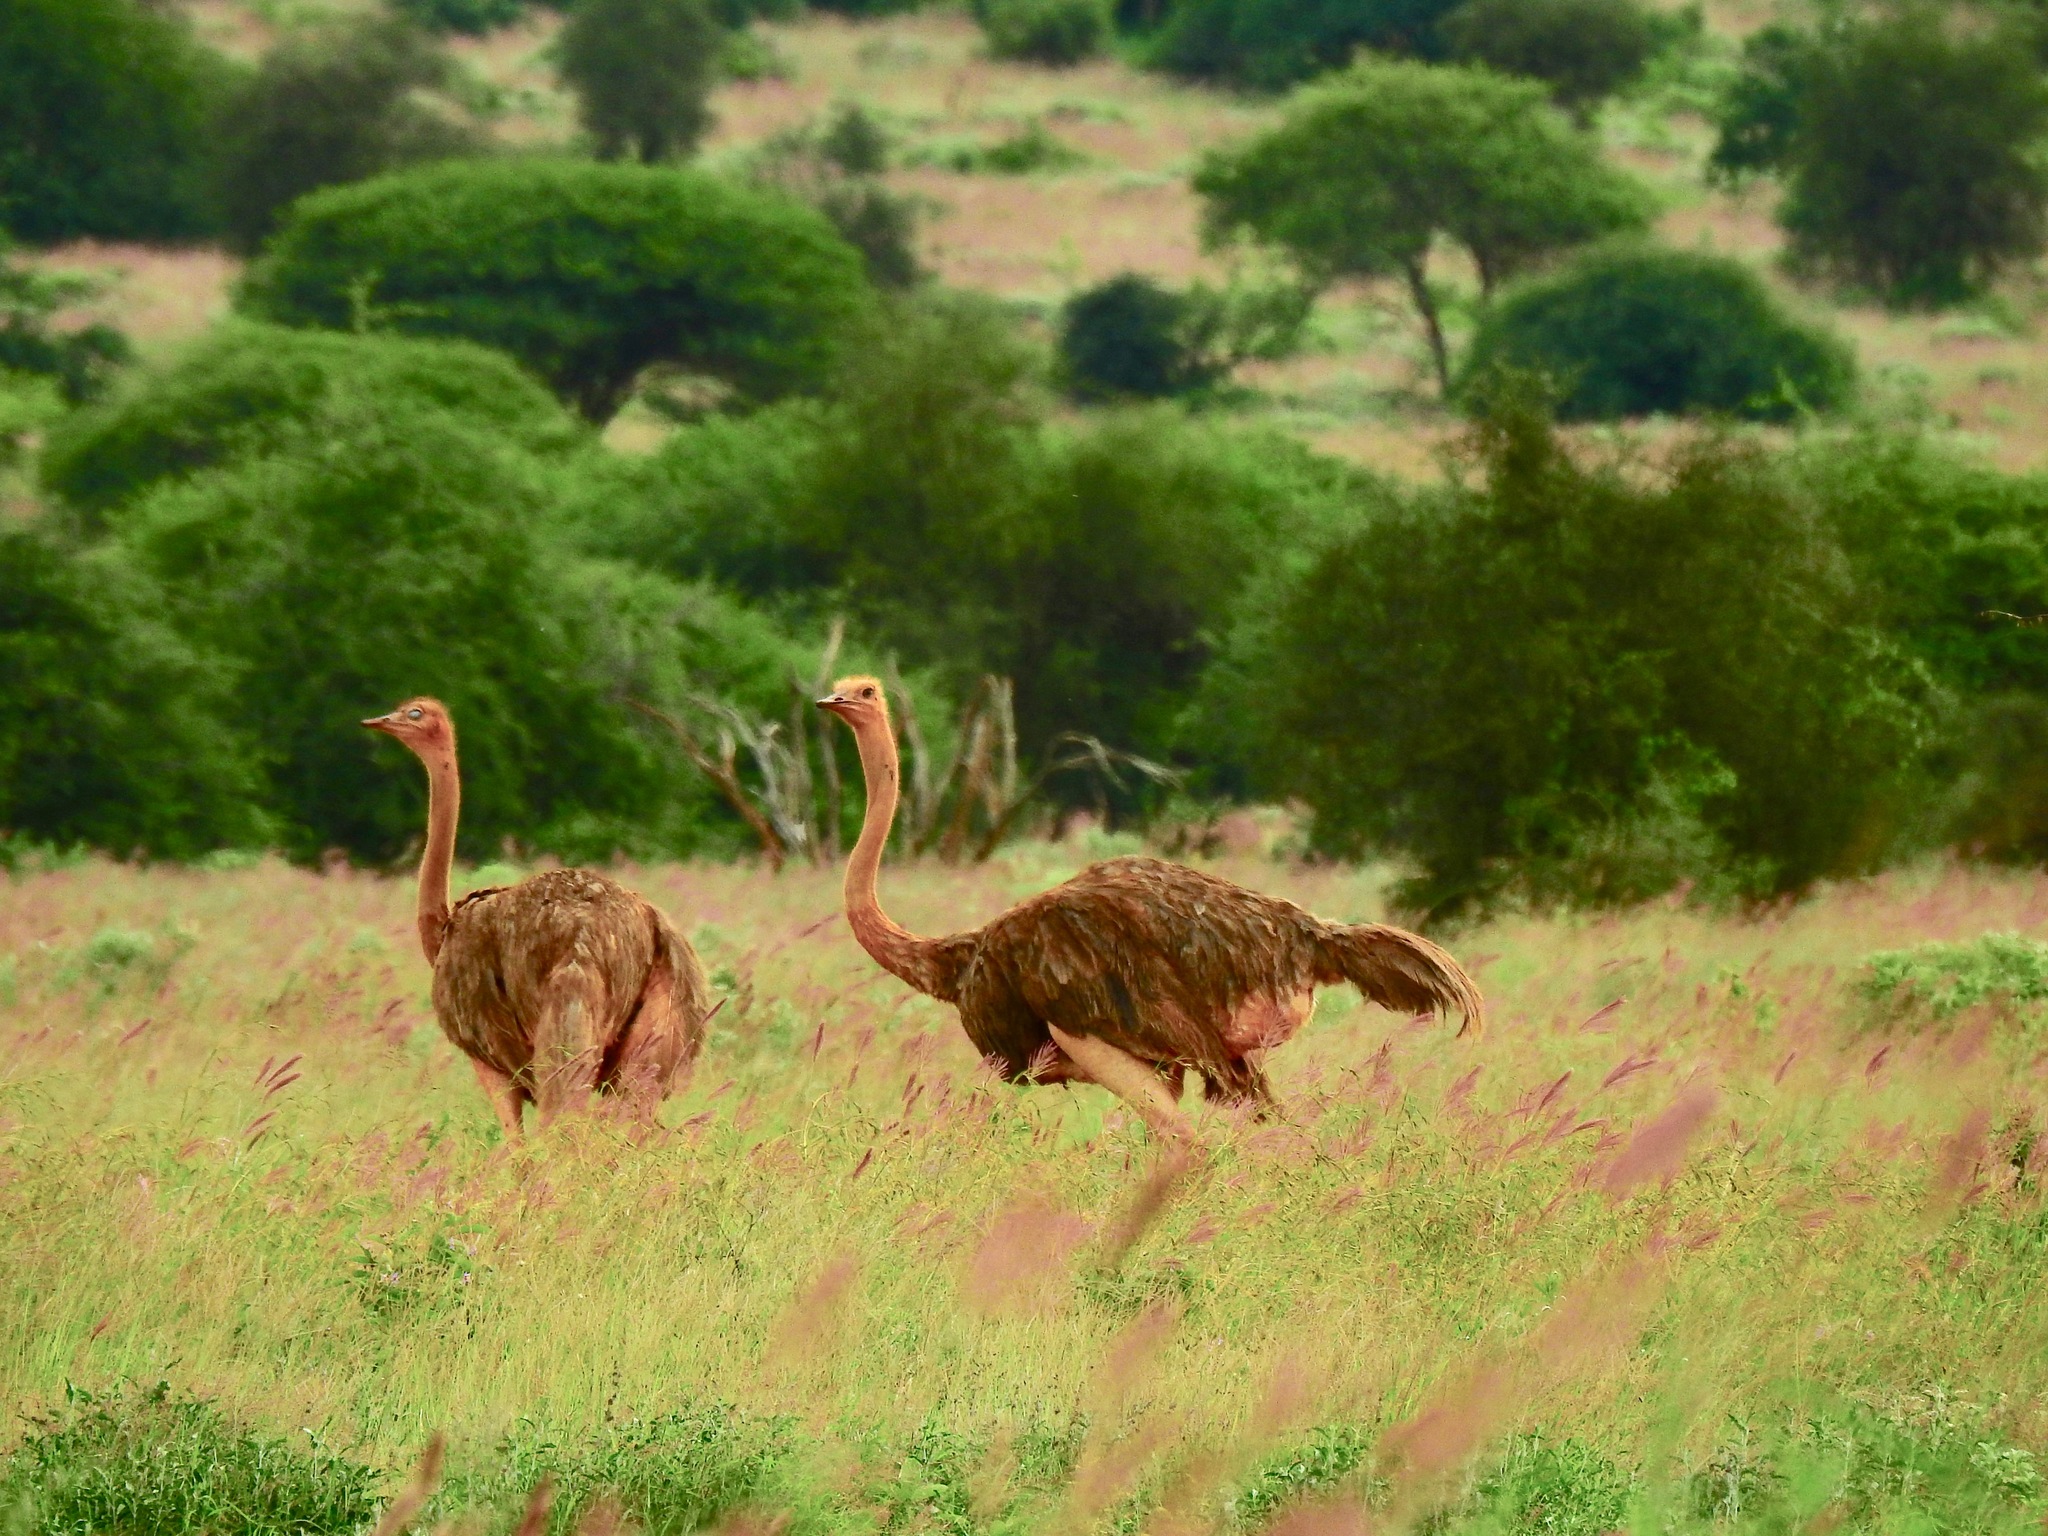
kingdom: Animalia
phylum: Chordata
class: Aves
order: Struthioniformes
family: Struthionidae
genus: Struthio
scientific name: Struthio camelus
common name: Common ostrich
